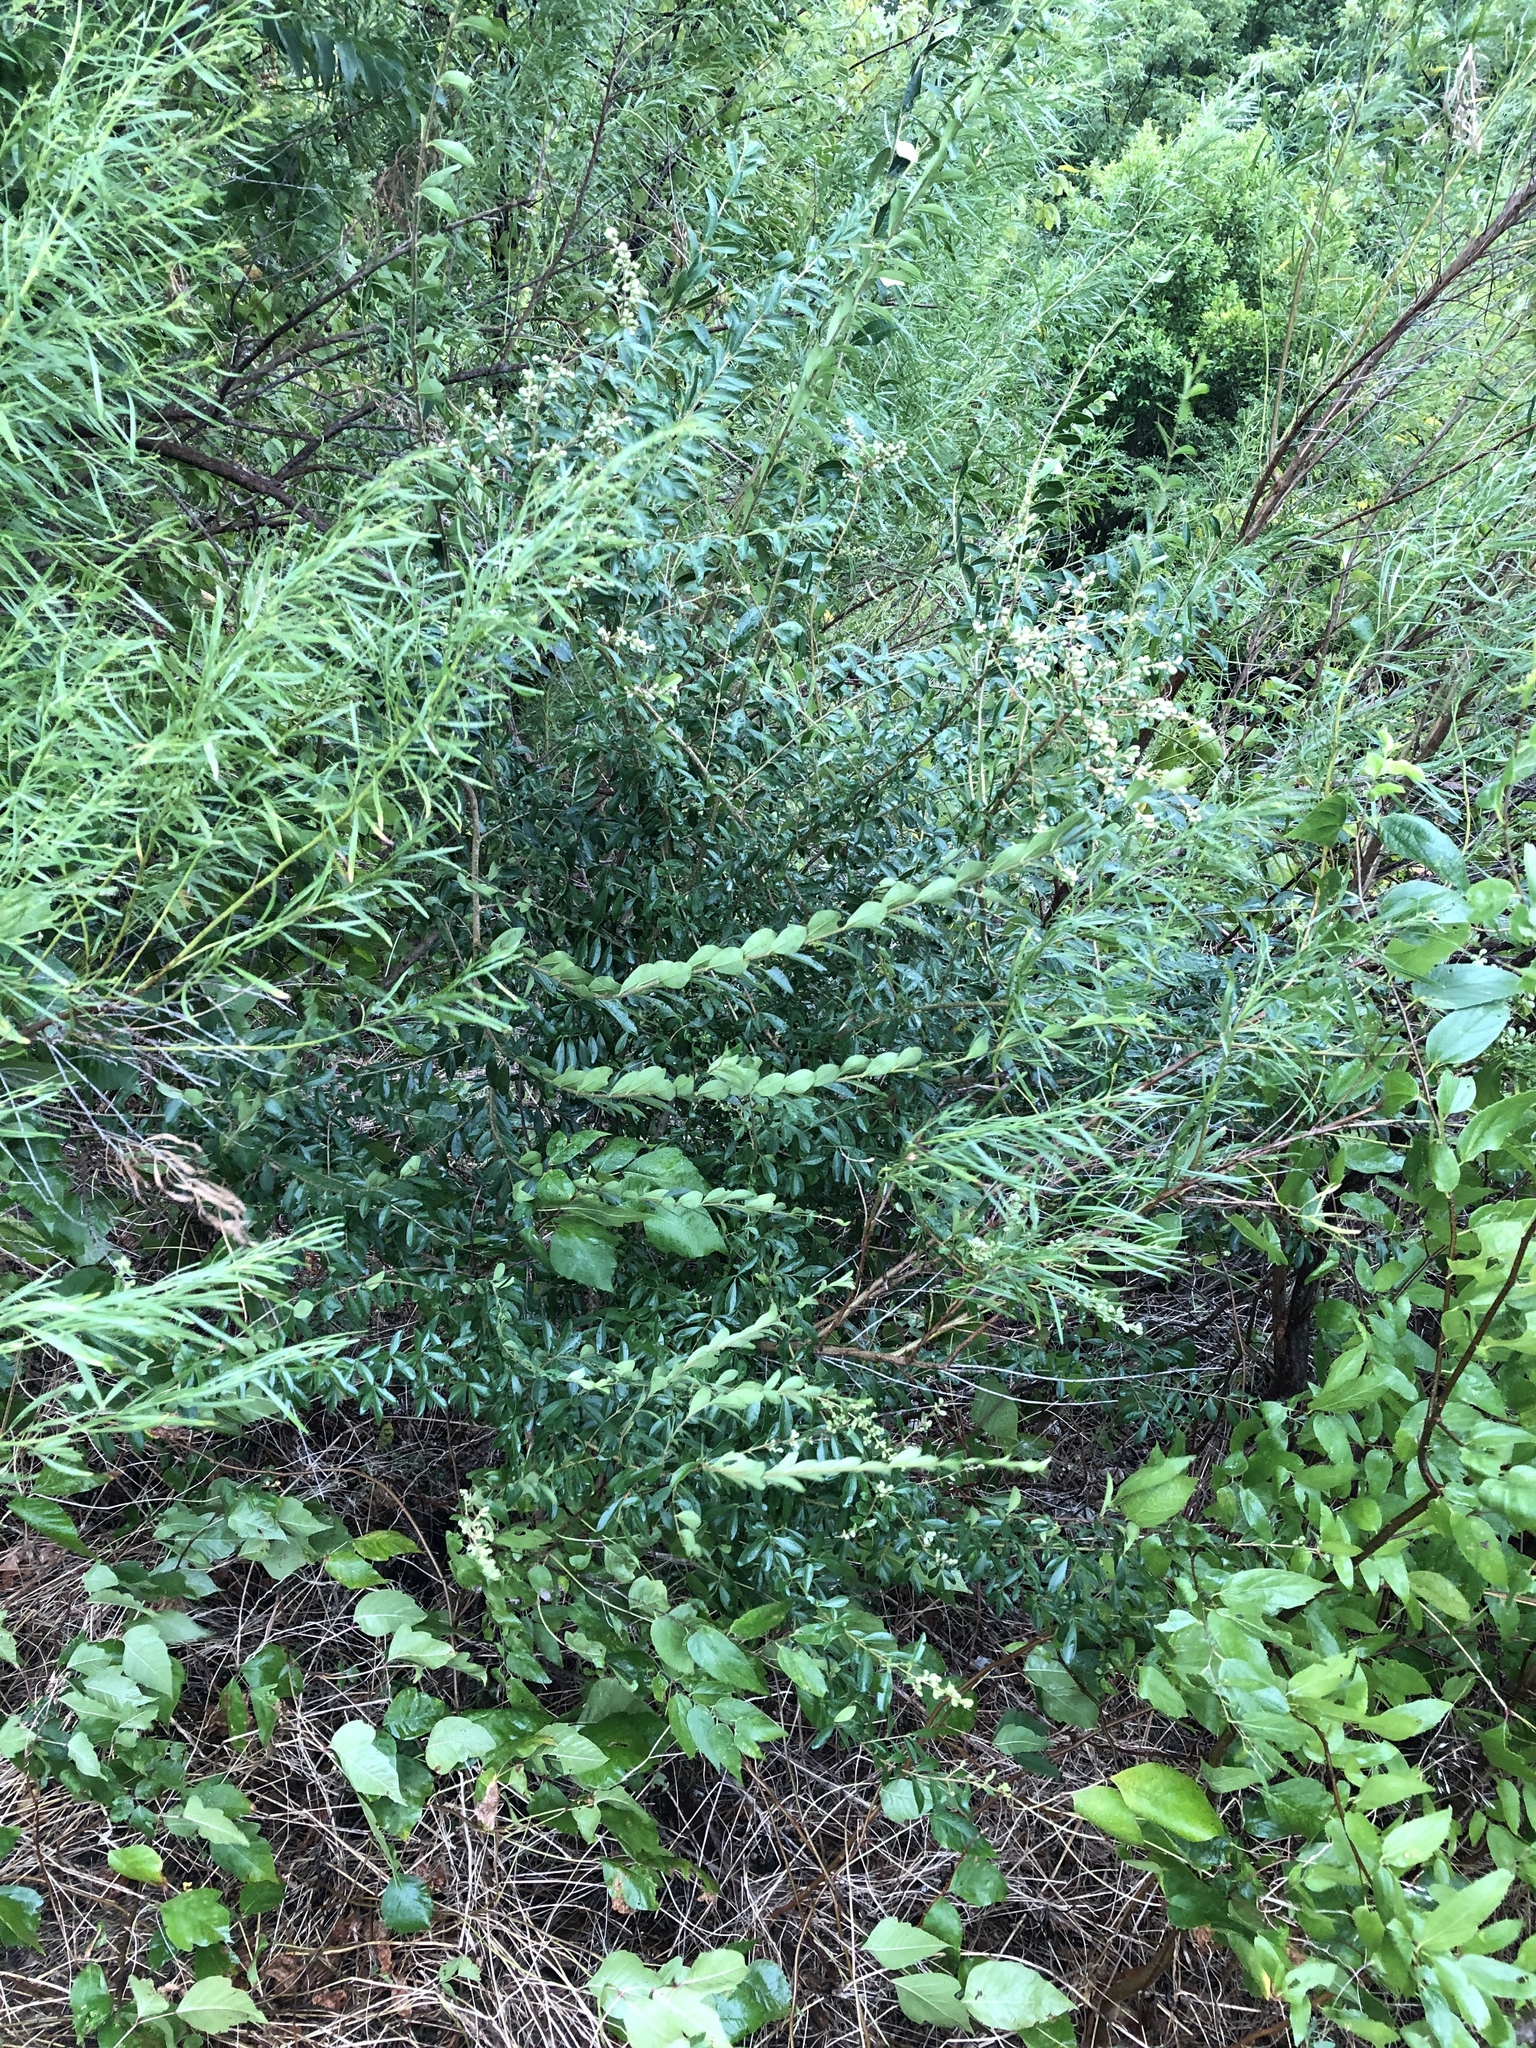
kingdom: Plantae
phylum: Tracheophyta
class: Magnoliopsida
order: Lamiales
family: Oleaceae
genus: Ligustrum
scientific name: Ligustrum quihoui
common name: Waxyleaf privet
